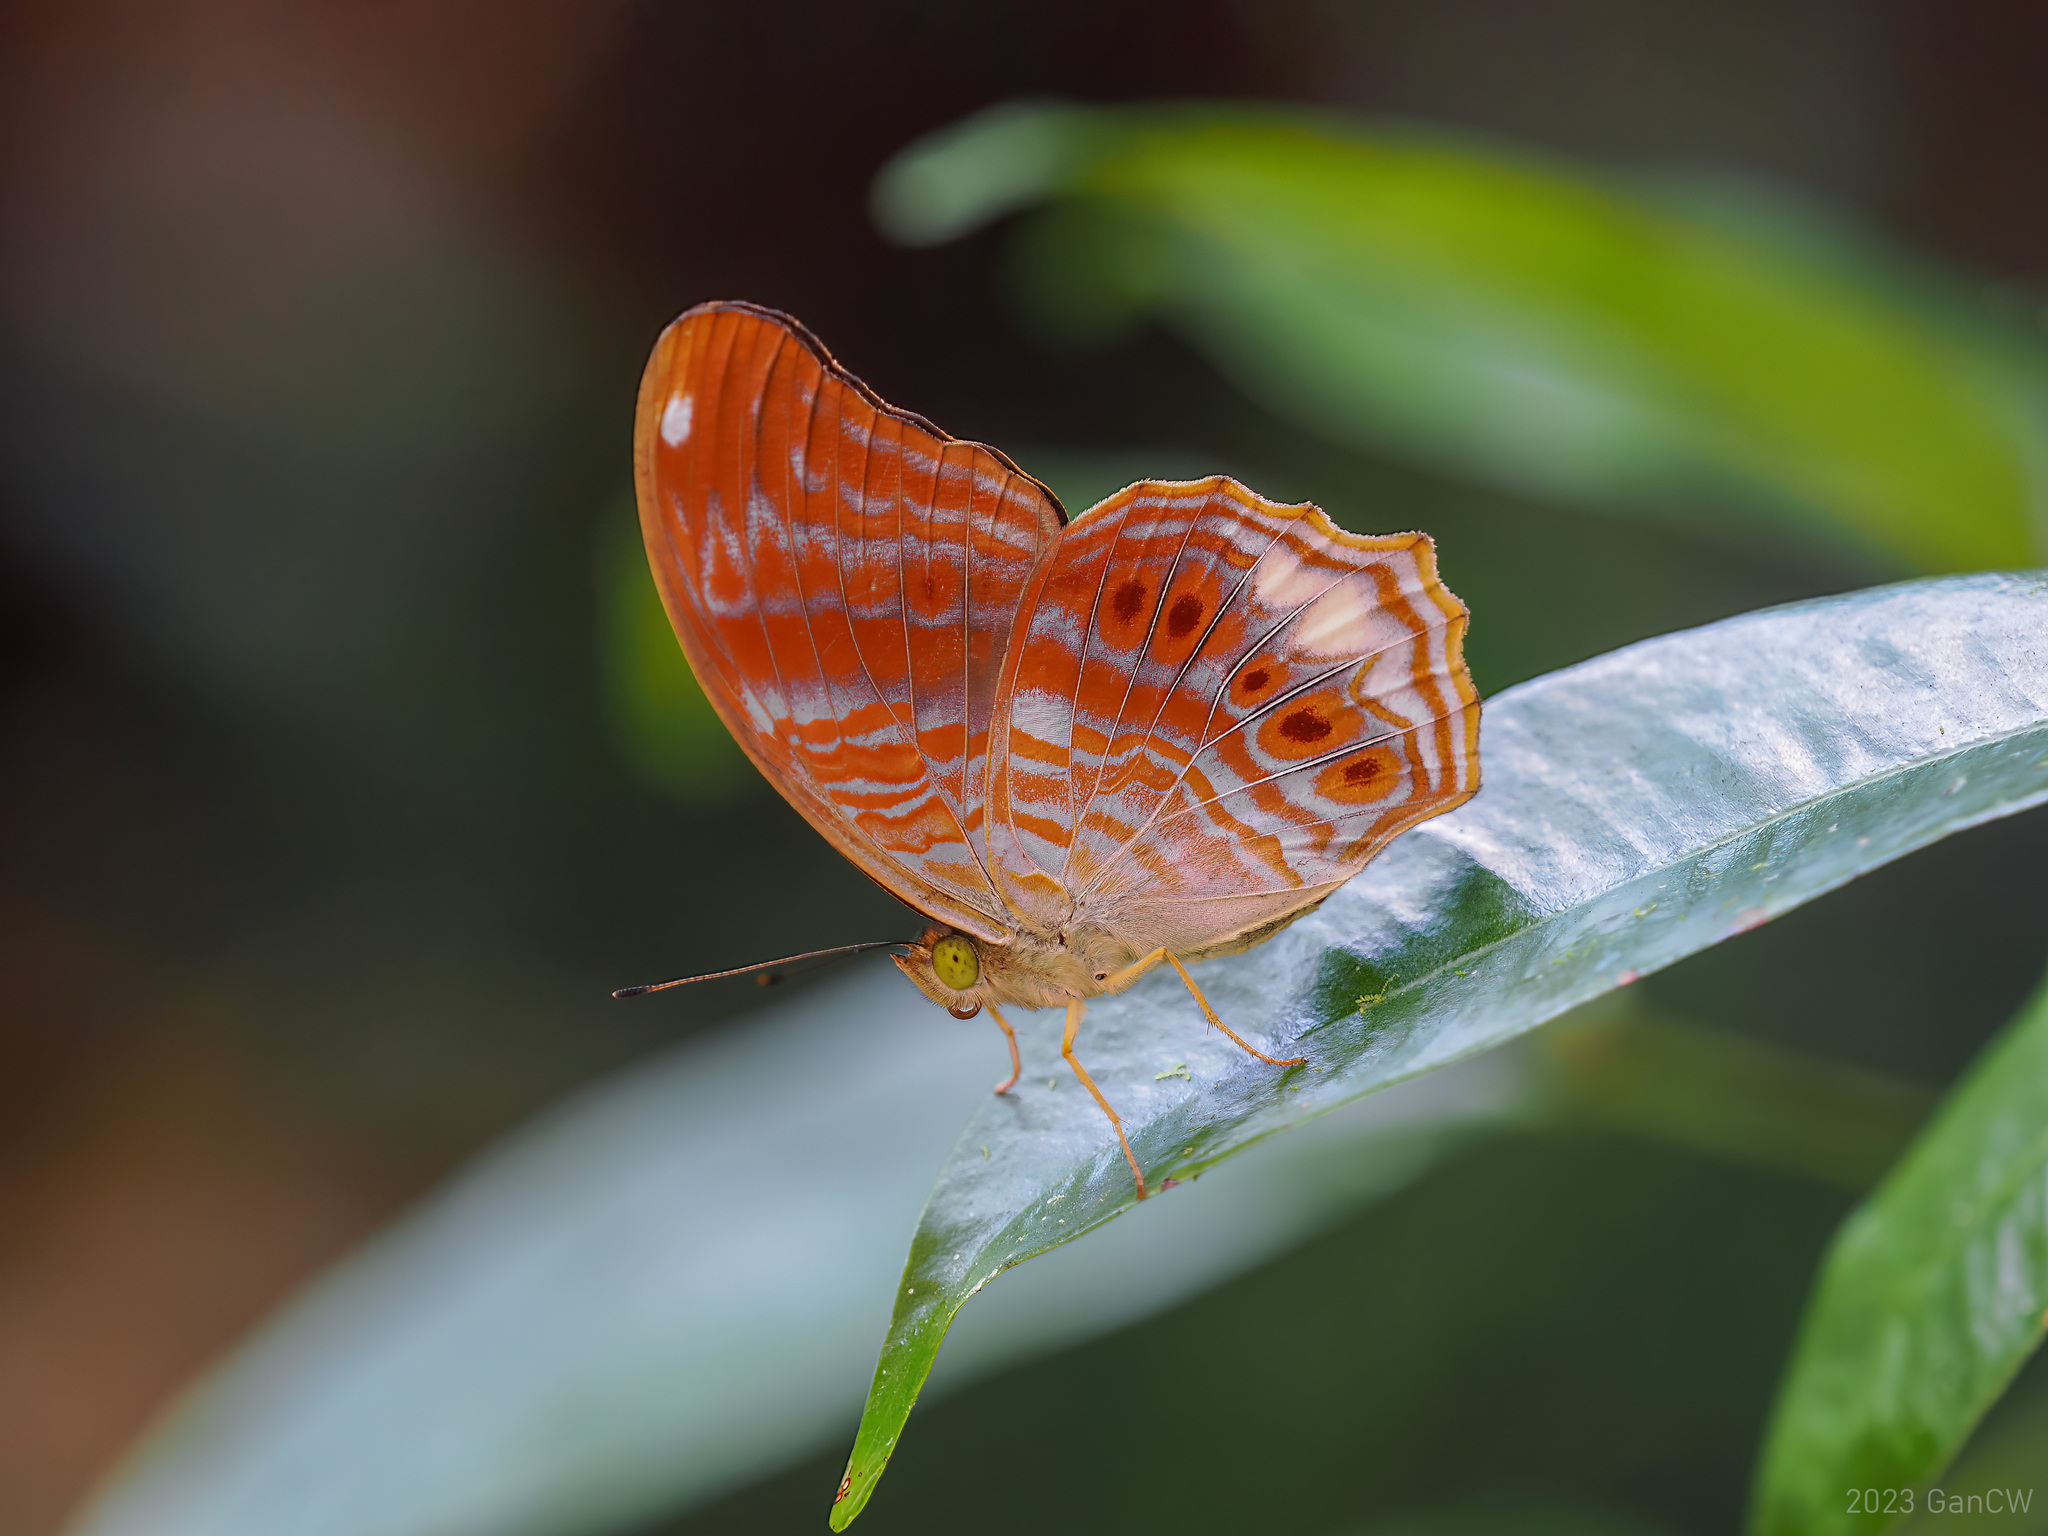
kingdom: Animalia
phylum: Arthropoda
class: Insecta
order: Lepidoptera
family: Nymphalidae
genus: Terinos
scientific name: Terinos terpander
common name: Royal assyrian
